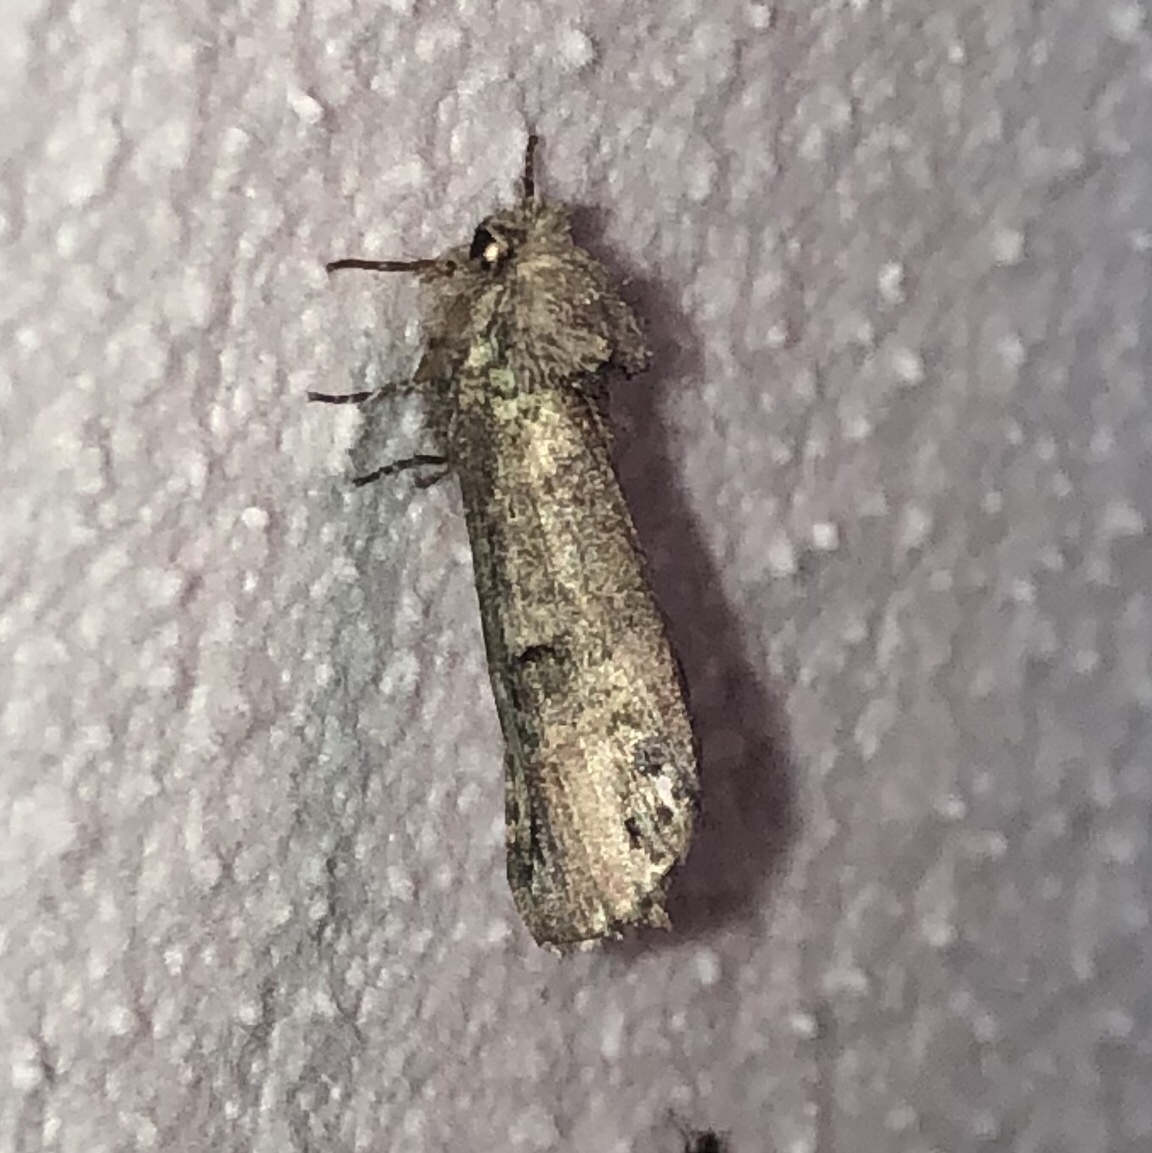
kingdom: Animalia
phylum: Arthropoda
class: Insecta
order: Lepidoptera
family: Notodontidae
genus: Schizura
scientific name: Schizura
